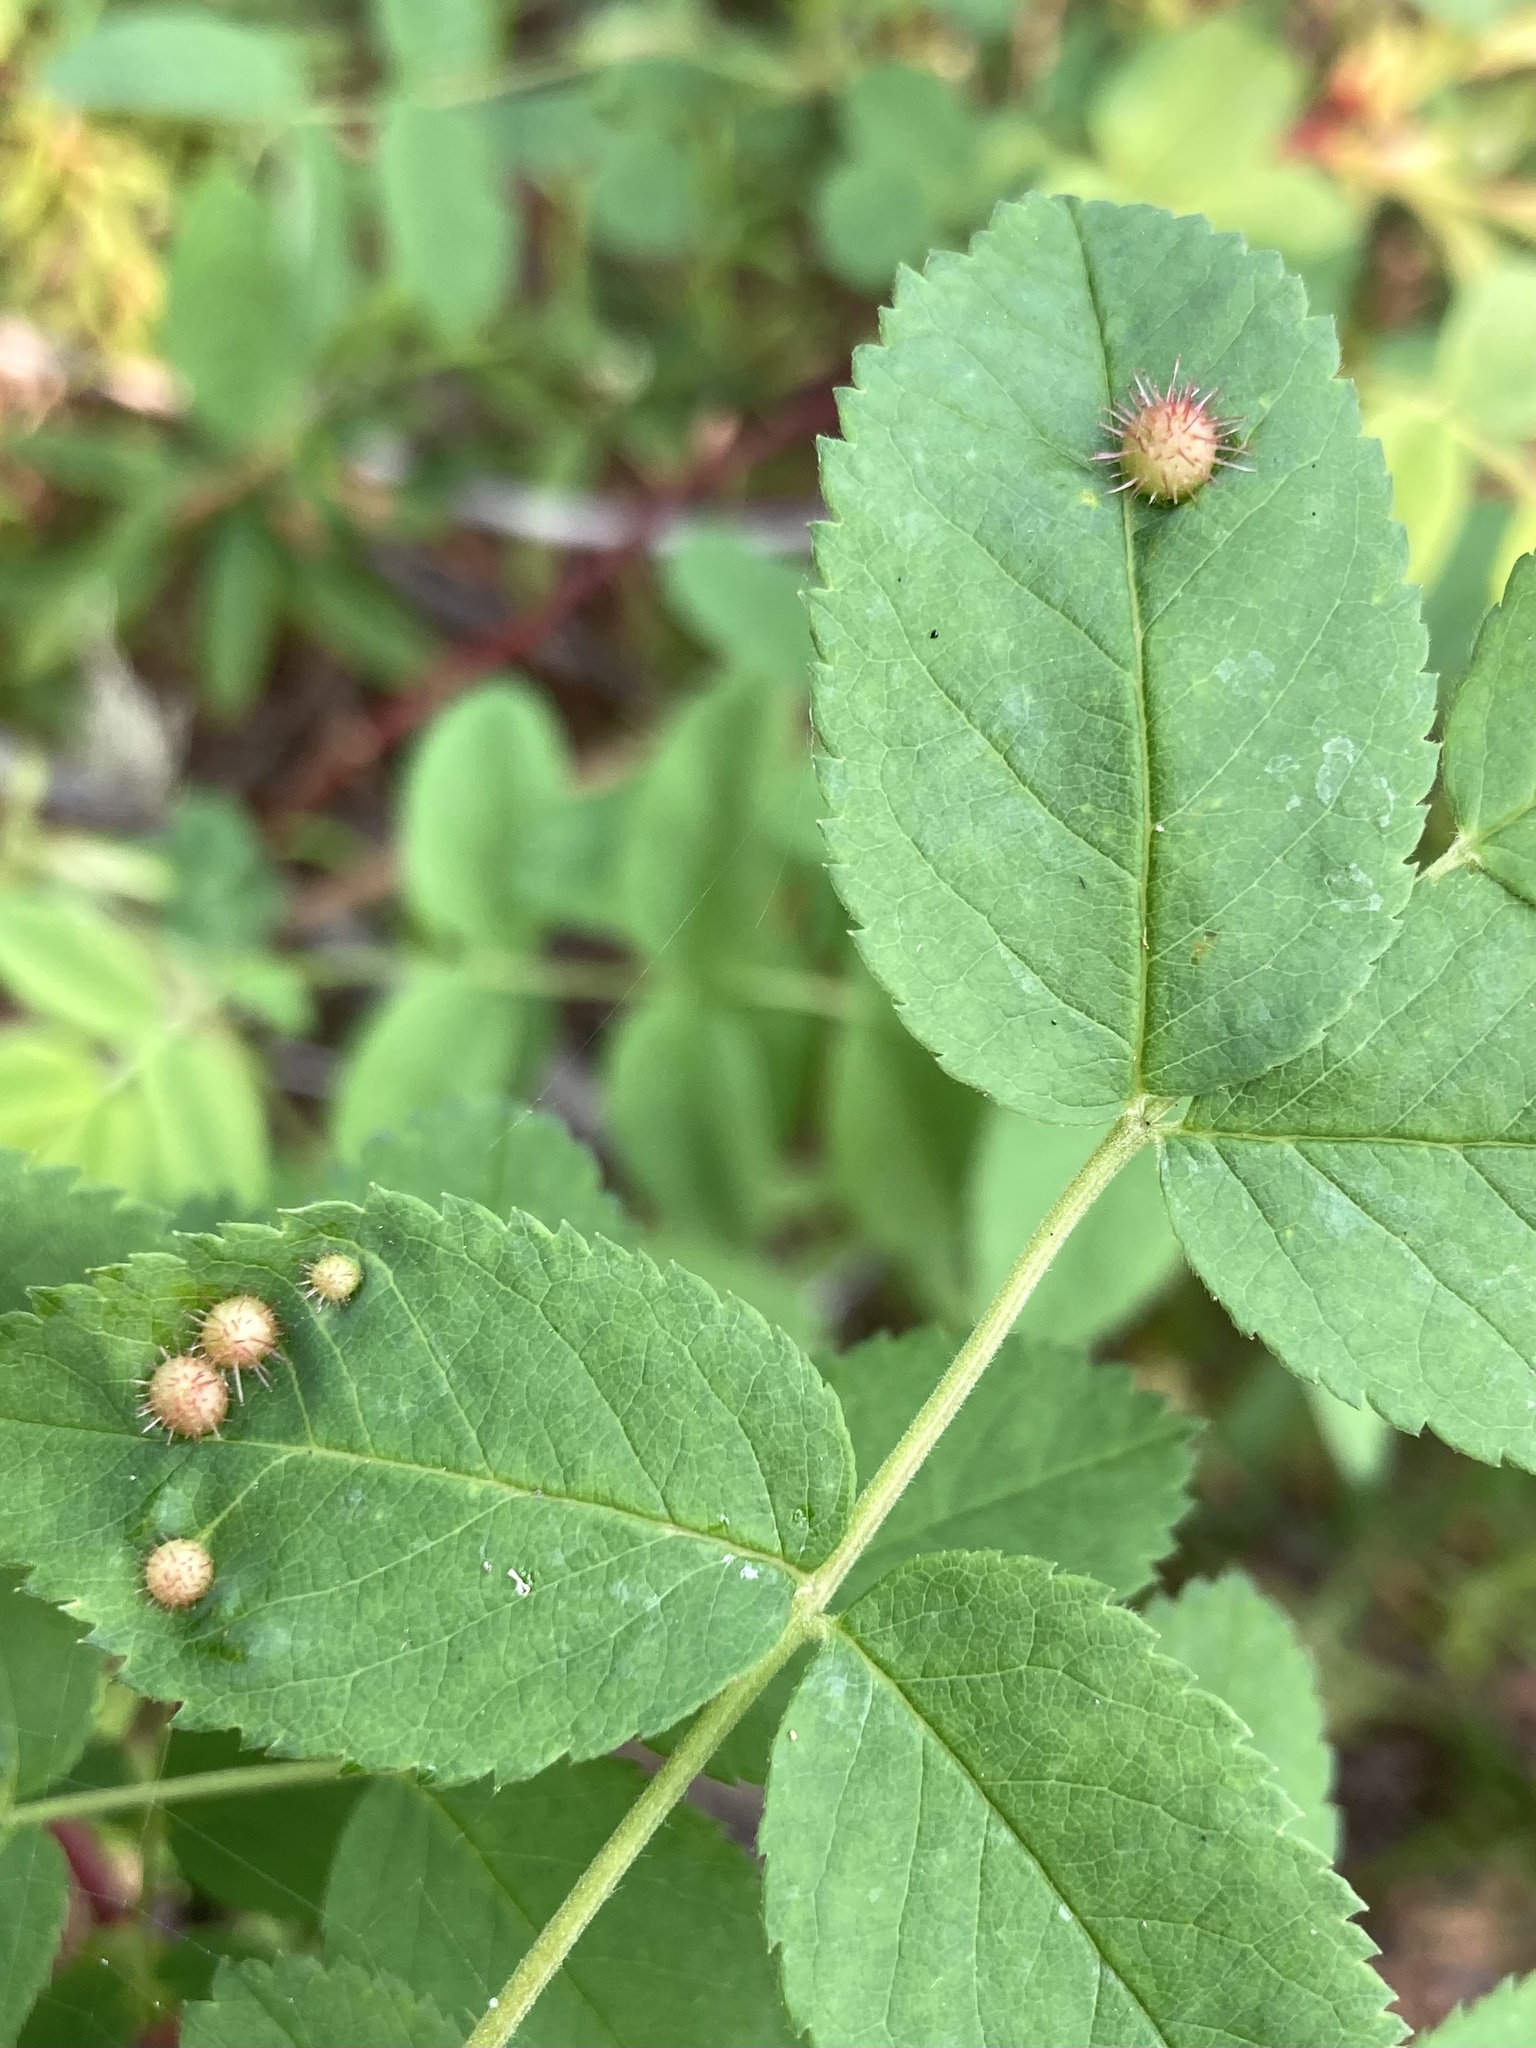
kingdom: Animalia
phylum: Arthropoda
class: Insecta
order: Hymenoptera
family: Cynipidae
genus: Diplolepis
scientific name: Diplolepis polita
